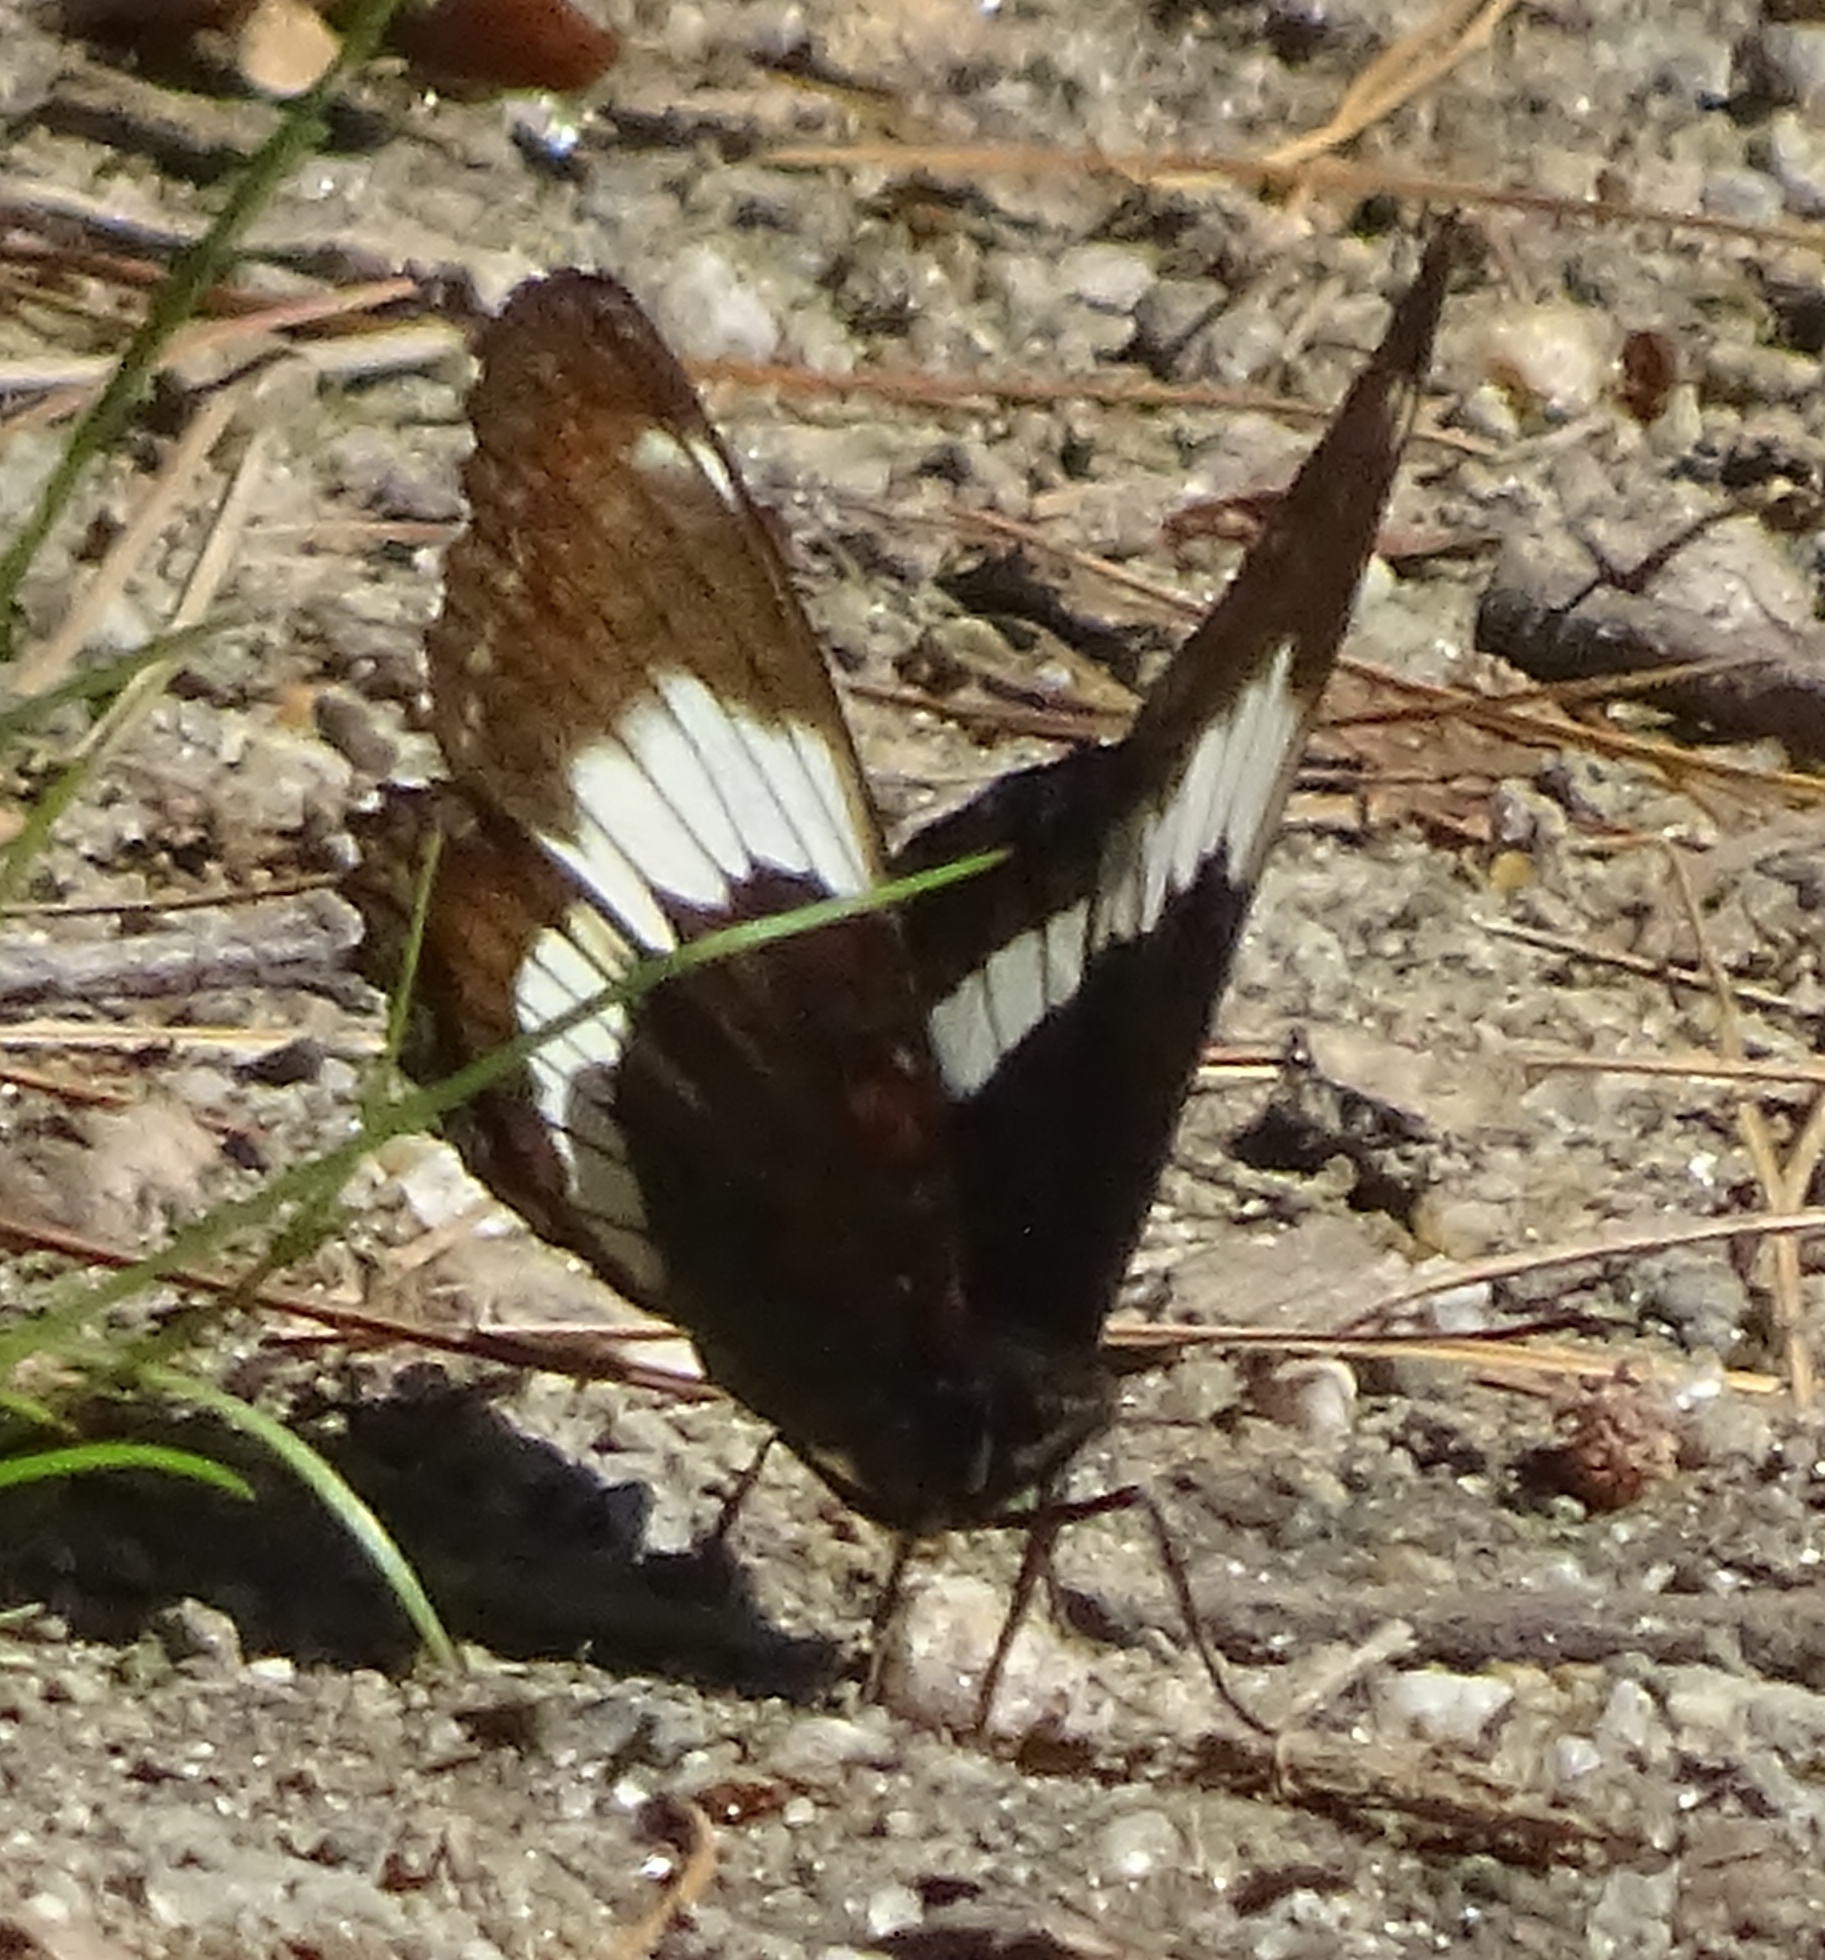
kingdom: Animalia
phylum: Arthropoda
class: Insecta
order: Lepidoptera
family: Nymphalidae
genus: Limenitis
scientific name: Limenitis arthemis
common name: Red-spotted admiral
